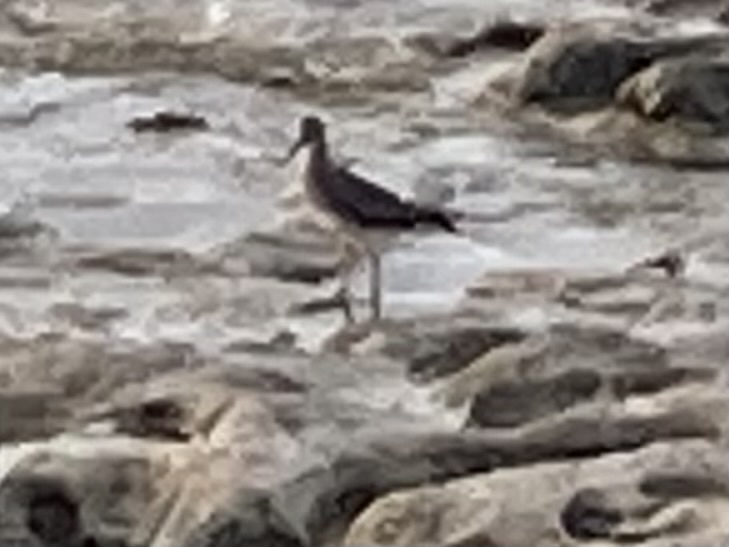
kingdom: Animalia
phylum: Chordata
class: Aves
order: Charadriiformes
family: Scolopacidae
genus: Tringa
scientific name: Tringa incana
